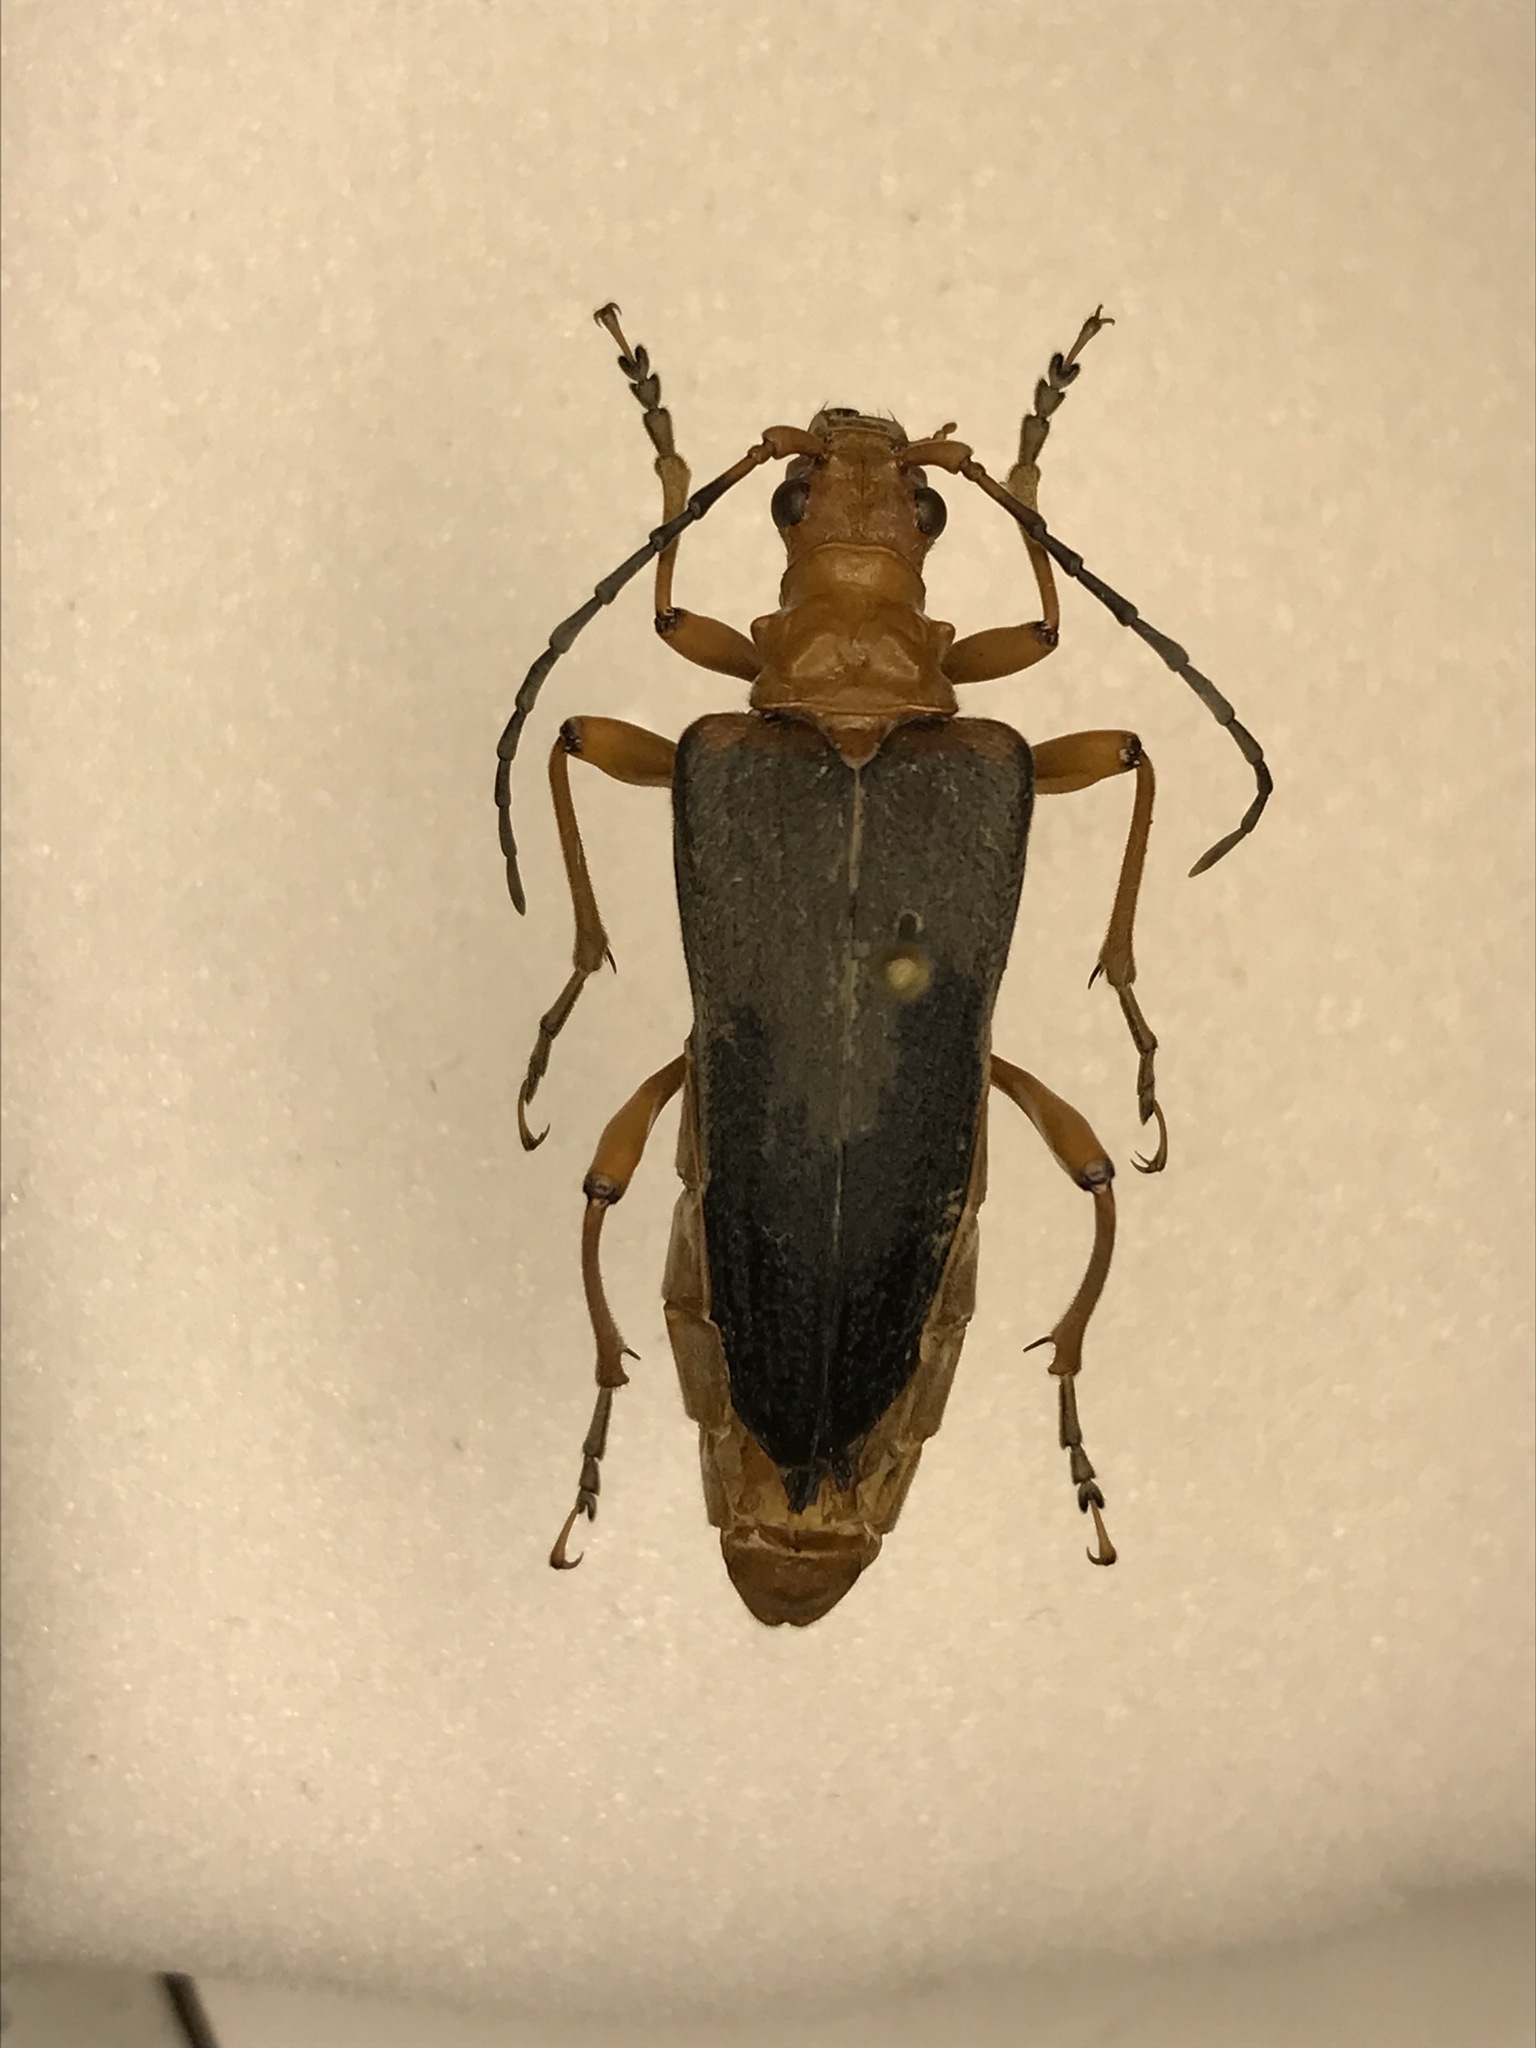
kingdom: Animalia
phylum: Arthropoda
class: Insecta
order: Coleoptera
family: Cerambycidae
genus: Stenocorus
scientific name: Stenocorus schaumii
